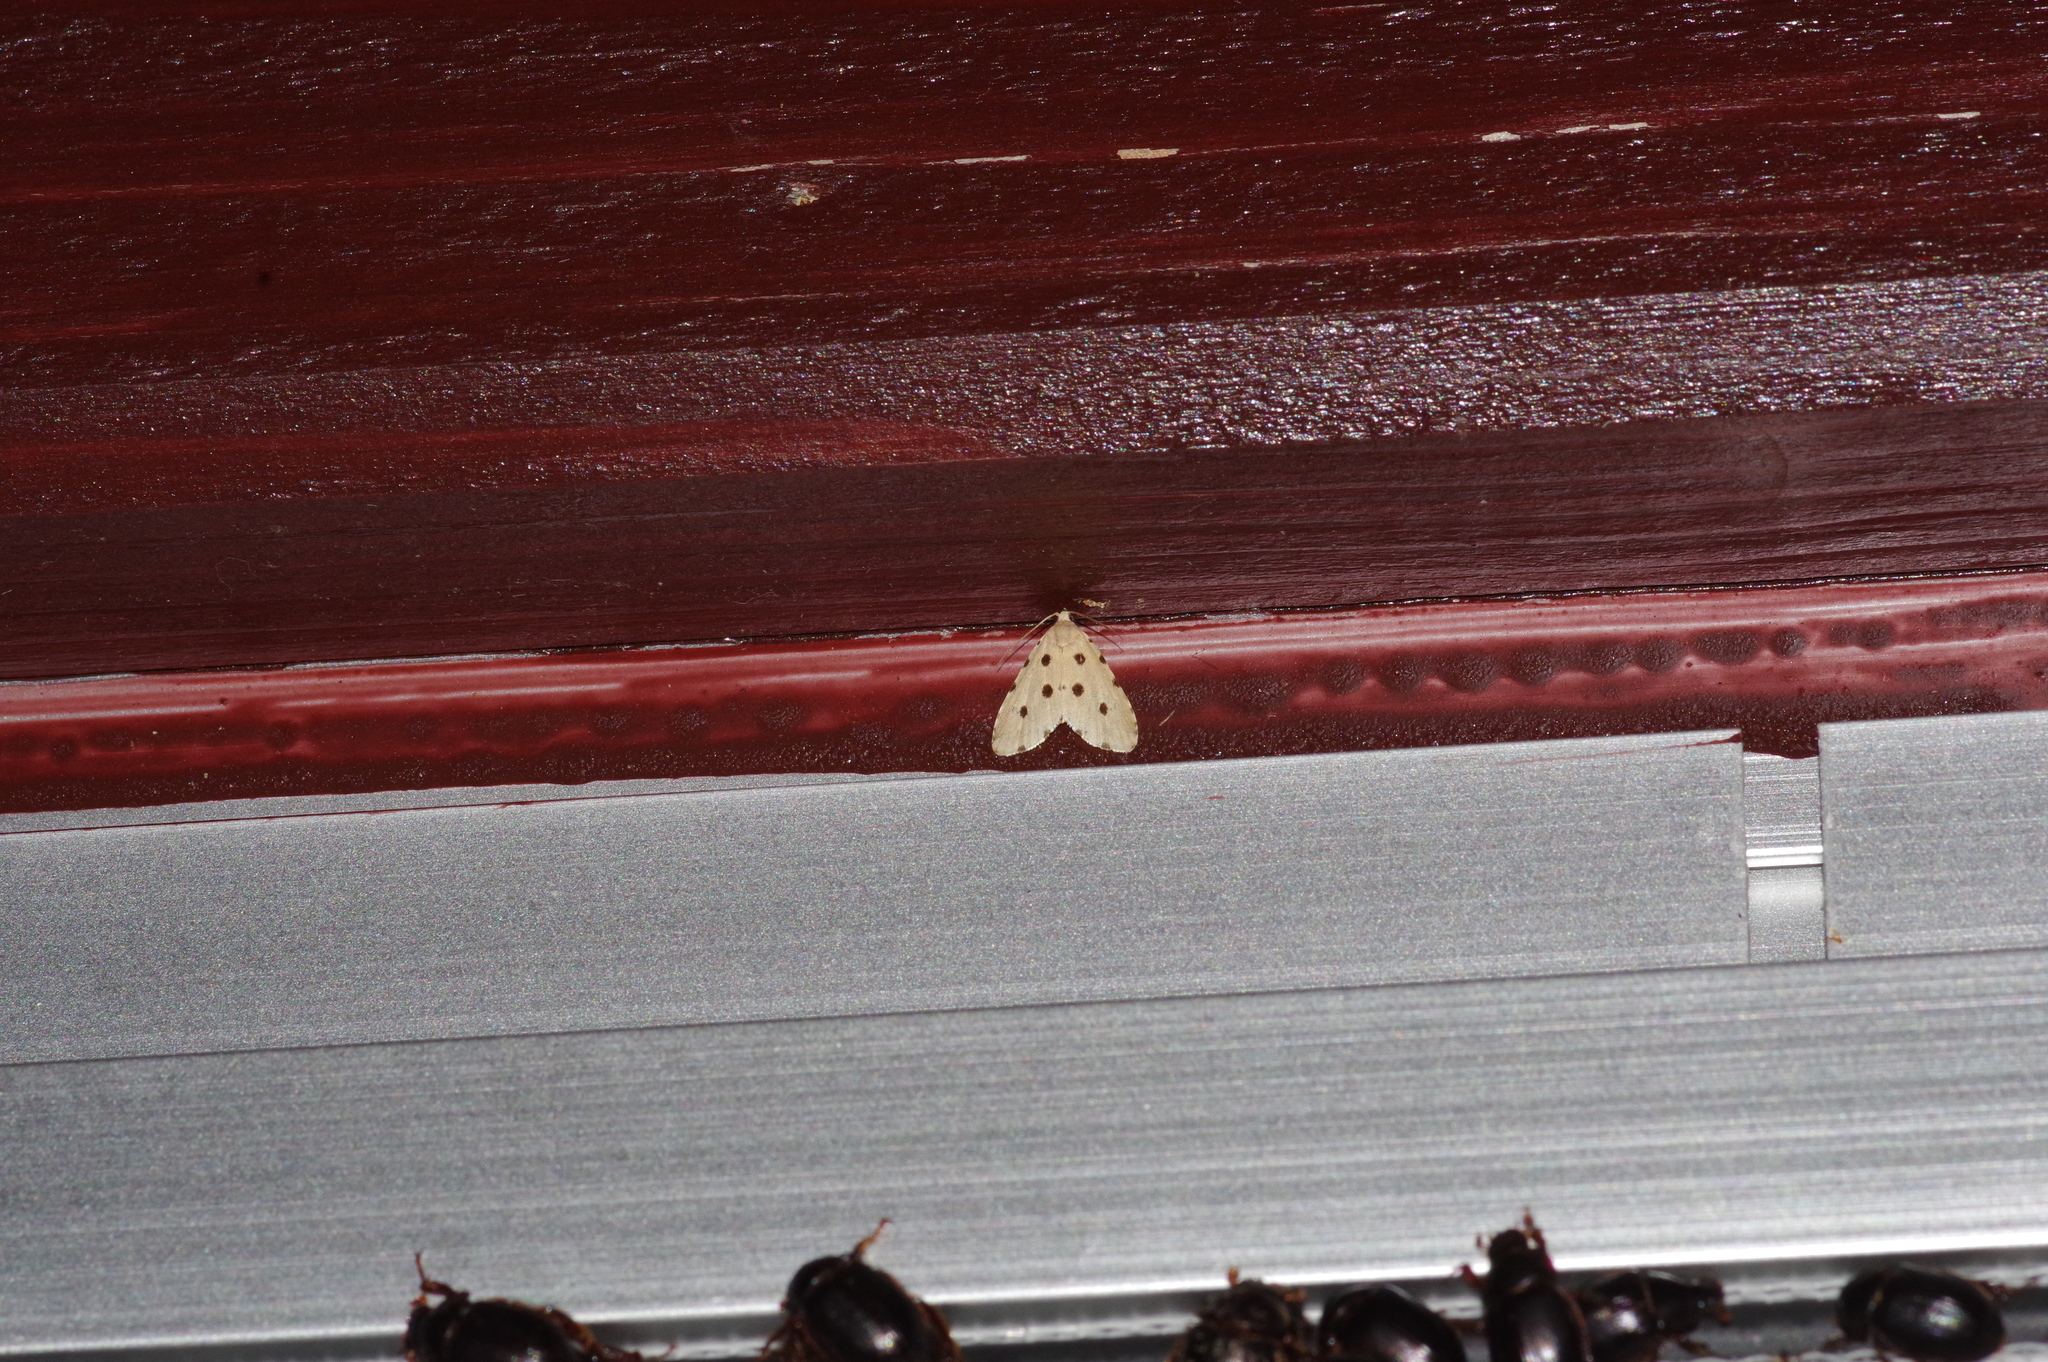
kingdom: Animalia
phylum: Arthropoda
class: Insecta
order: Lepidoptera
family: Noctuidae
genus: Metaemene
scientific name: Metaemene atrigutta
